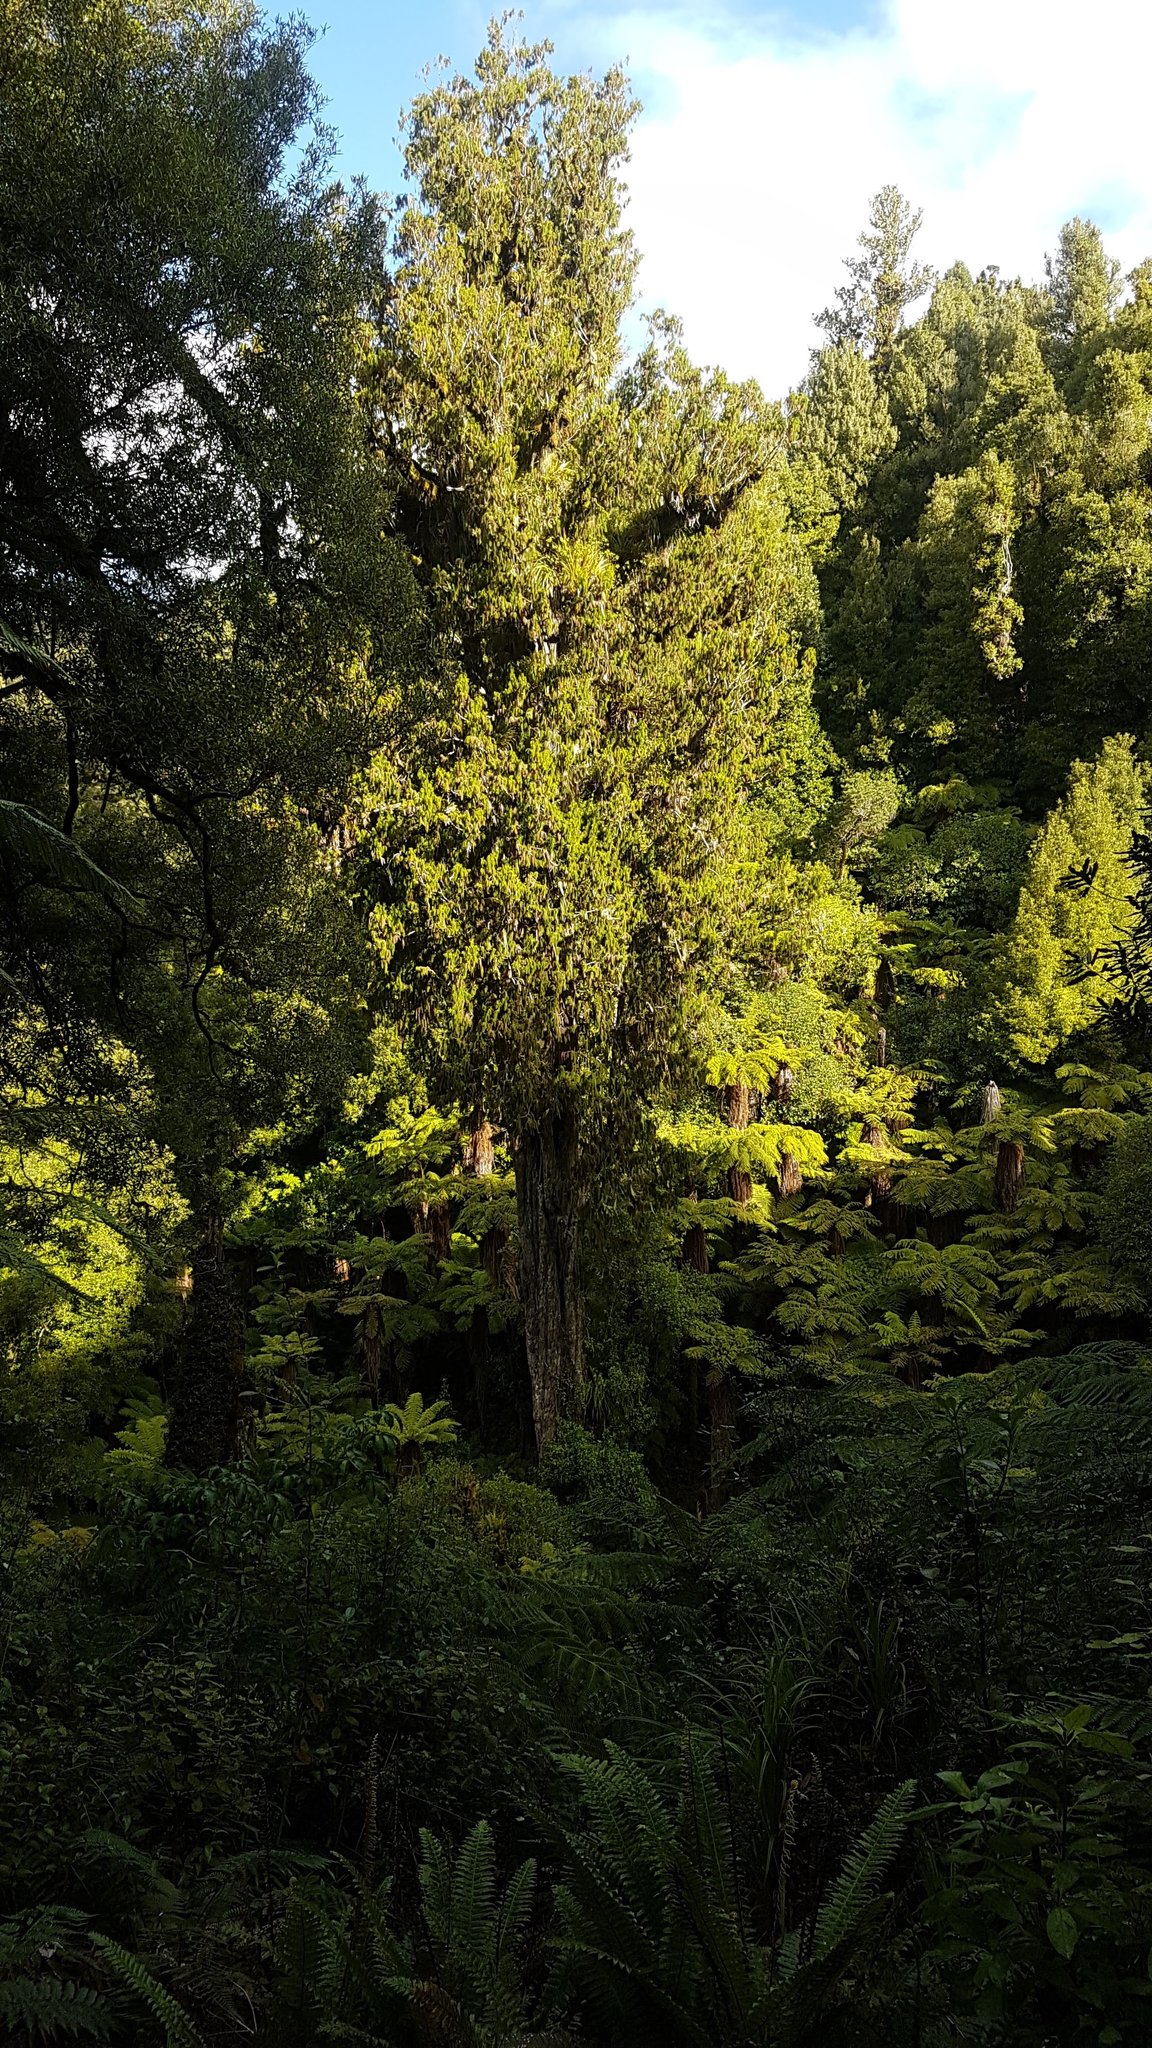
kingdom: Plantae
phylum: Tracheophyta
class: Pinopsida
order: Pinales
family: Podocarpaceae
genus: Dacrydium
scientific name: Dacrydium cupressinum
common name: Red pine
